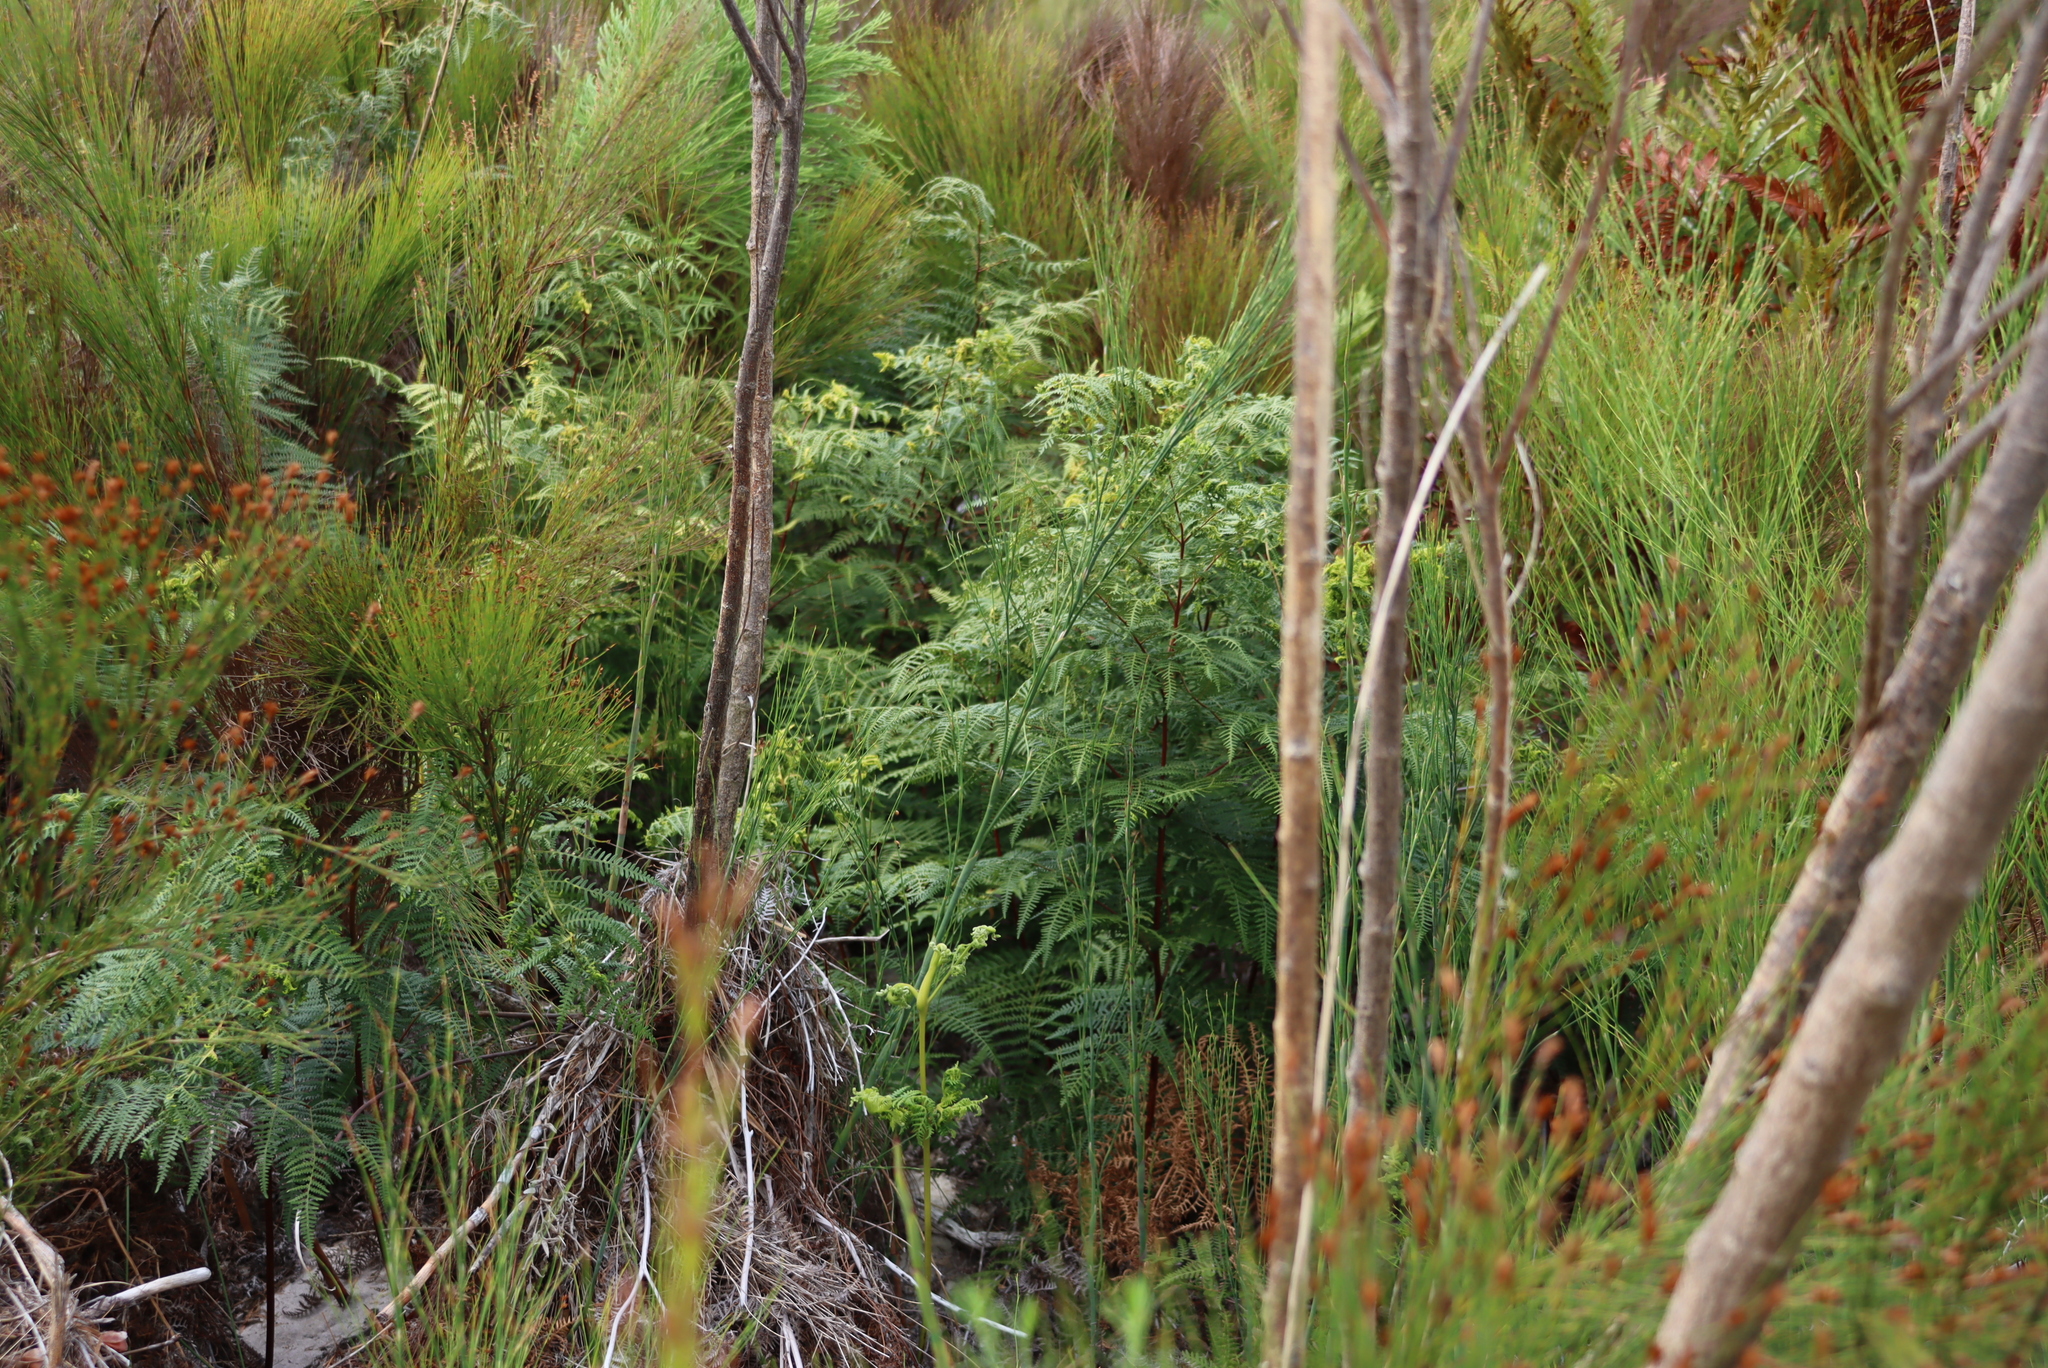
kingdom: Plantae
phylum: Tracheophyta
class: Polypodiopsida
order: Polypodiales
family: Dennstaedtiaceae
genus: Pteridium
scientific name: Pteridium aquilinum
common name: Bracken
